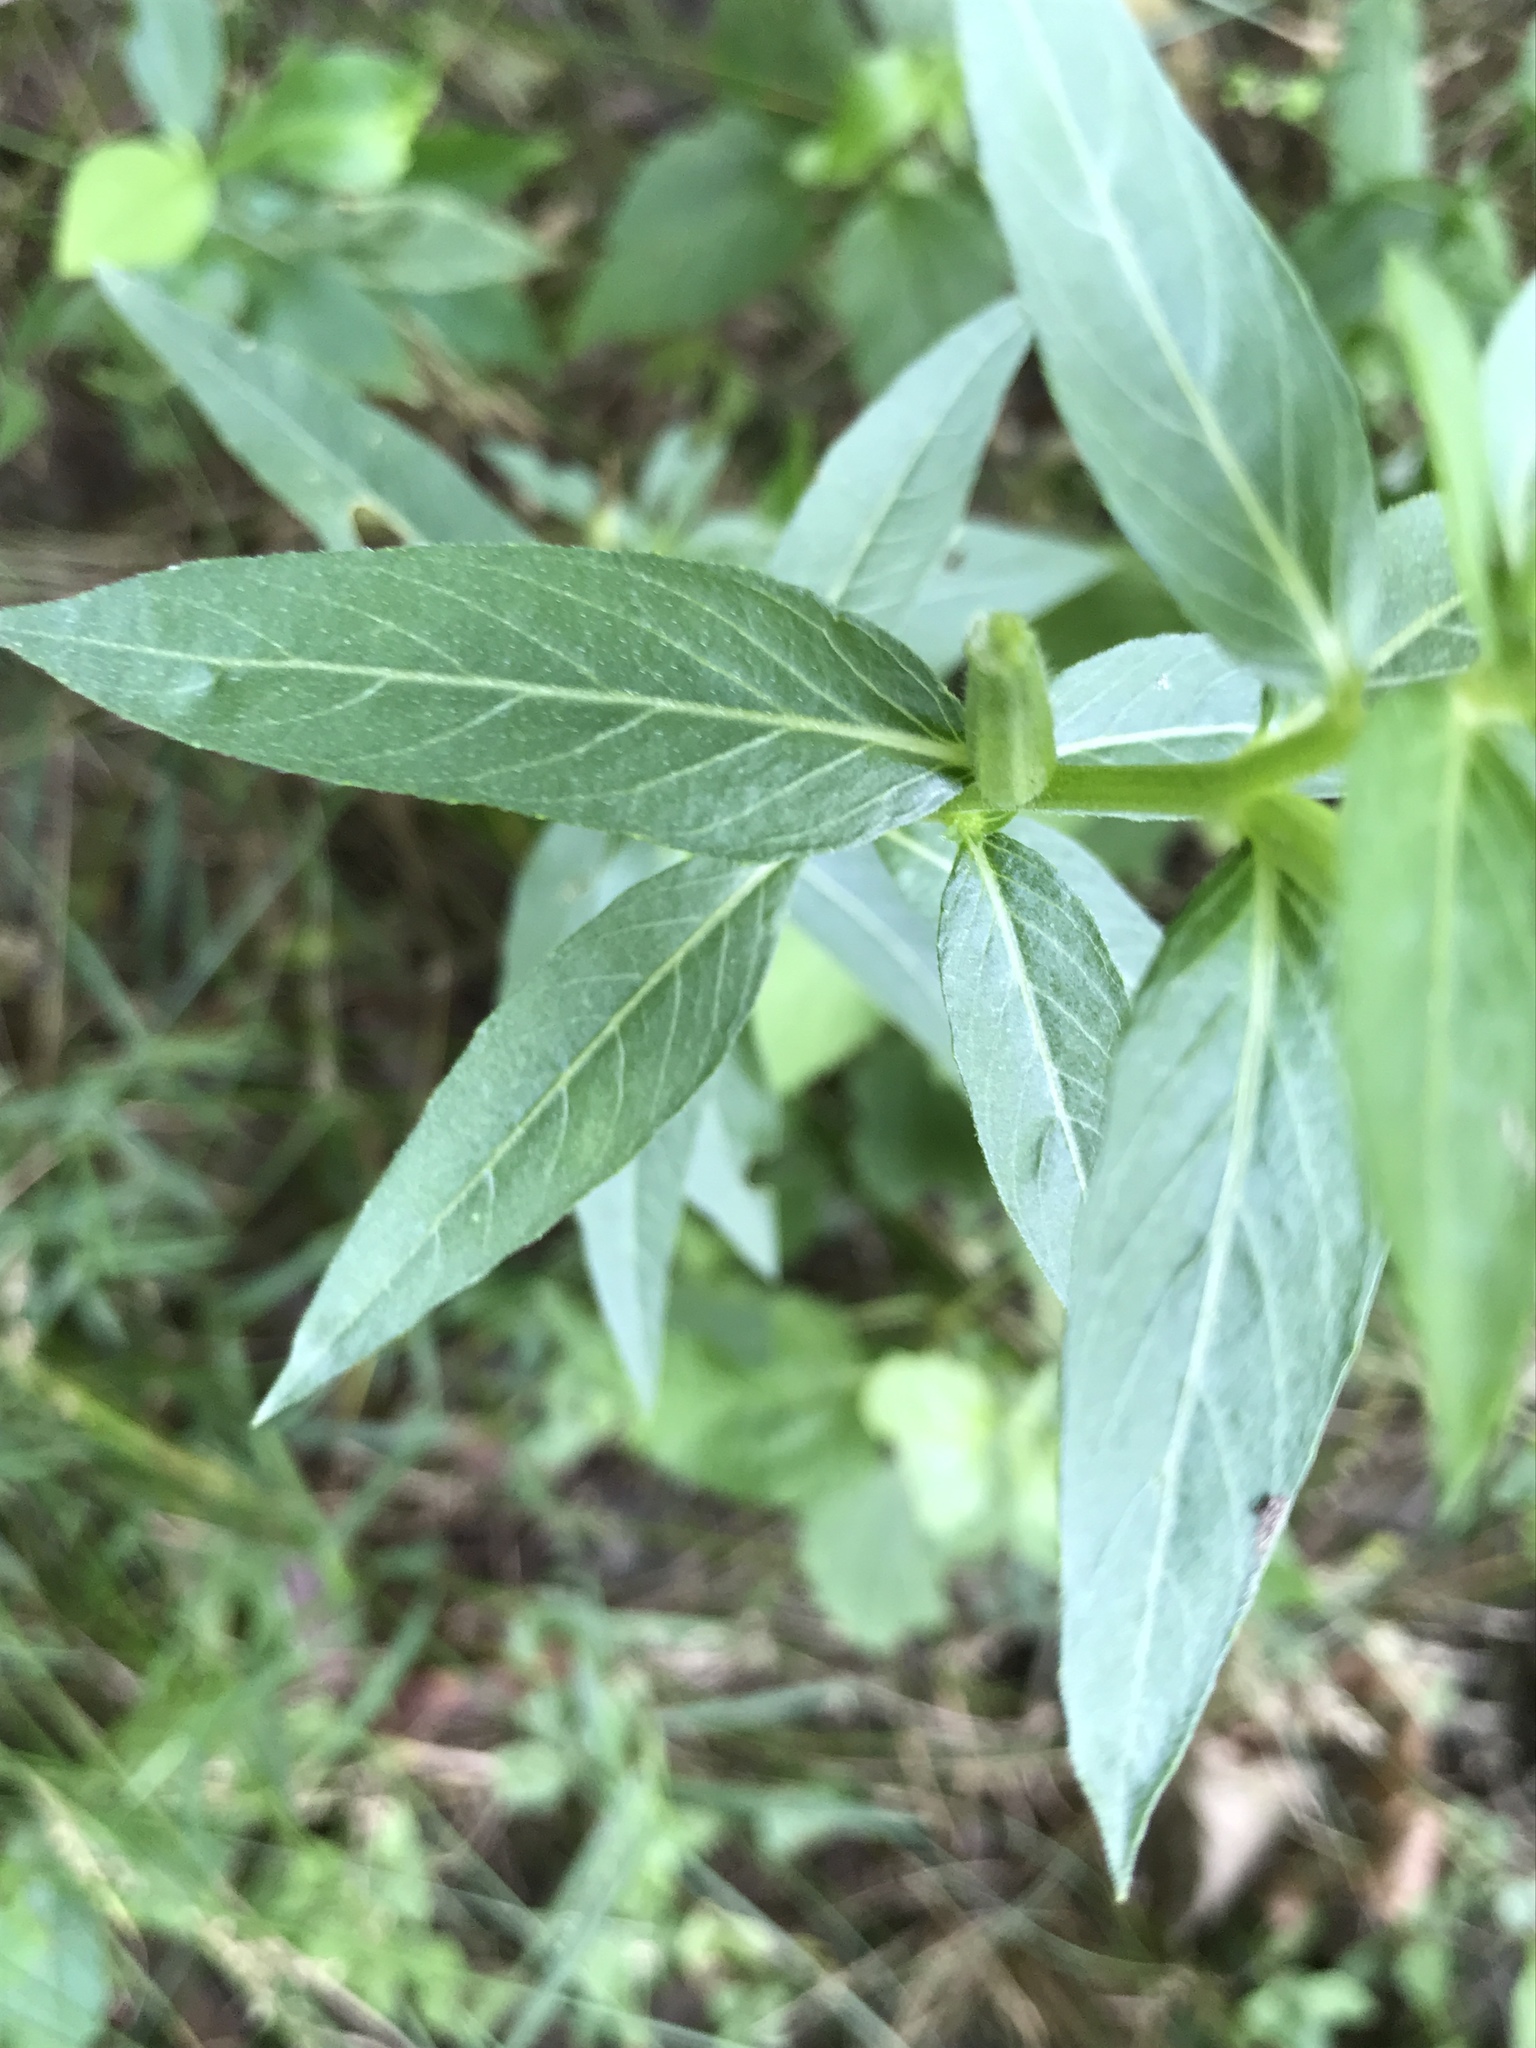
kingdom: Plantae
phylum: Tracheophyta
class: Magnoliopsida
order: Myrtales
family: Onagraceae
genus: Oenothera
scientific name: Oenothera biennis
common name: Common evening-primrose
